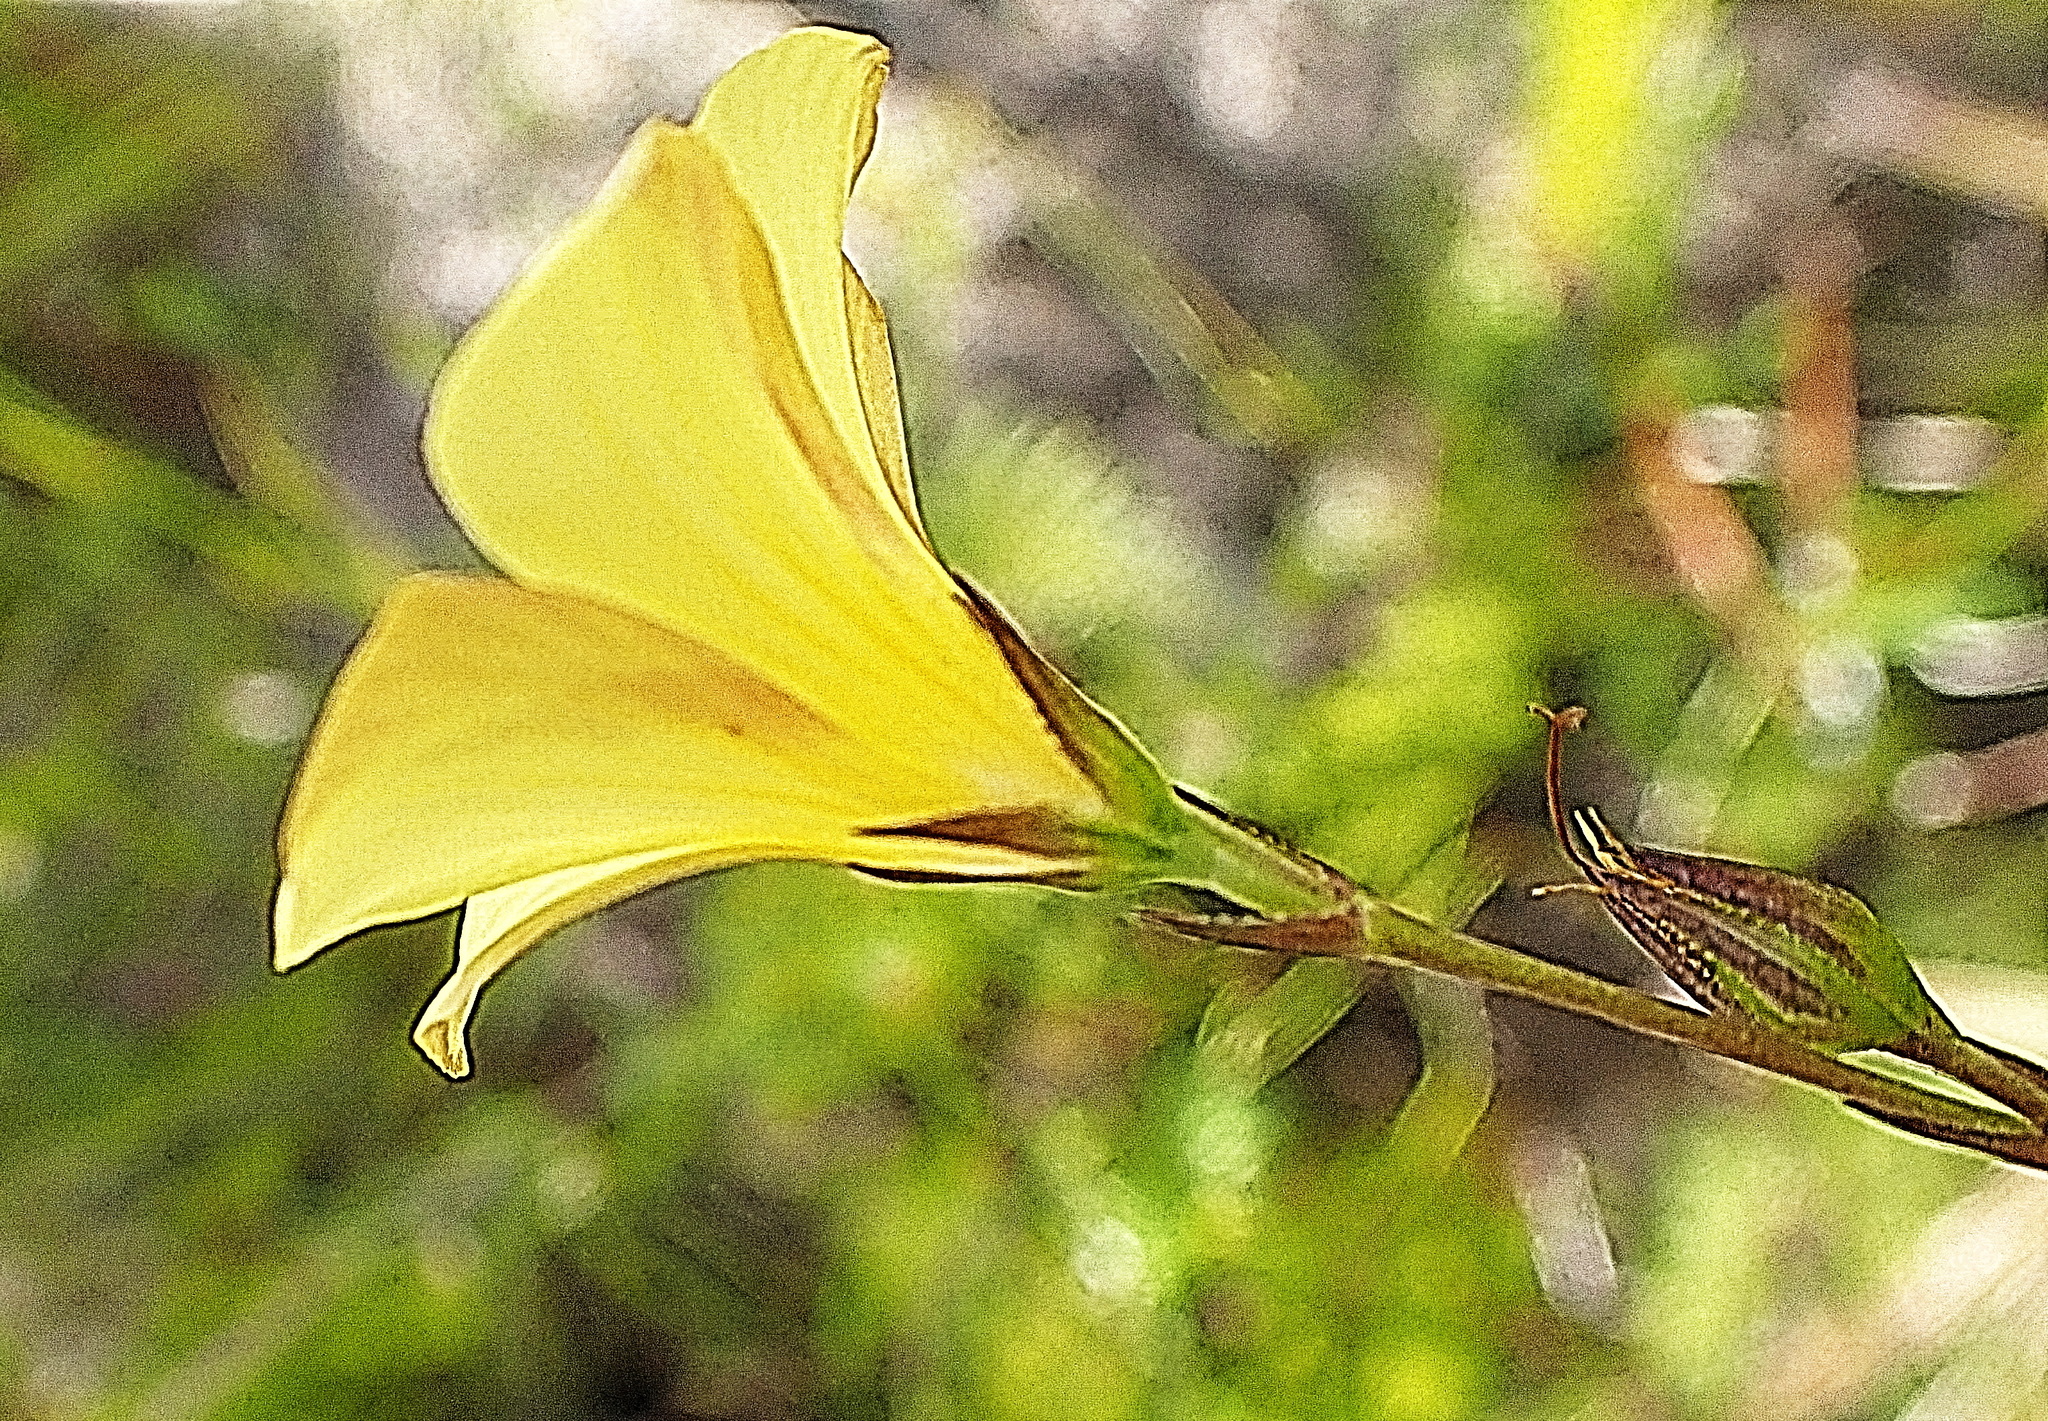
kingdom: Plantae
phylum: Tracheophyta
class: Magnoliopsida
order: Malpighiales
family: Linaceae
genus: Linum
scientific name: Linum africanum
